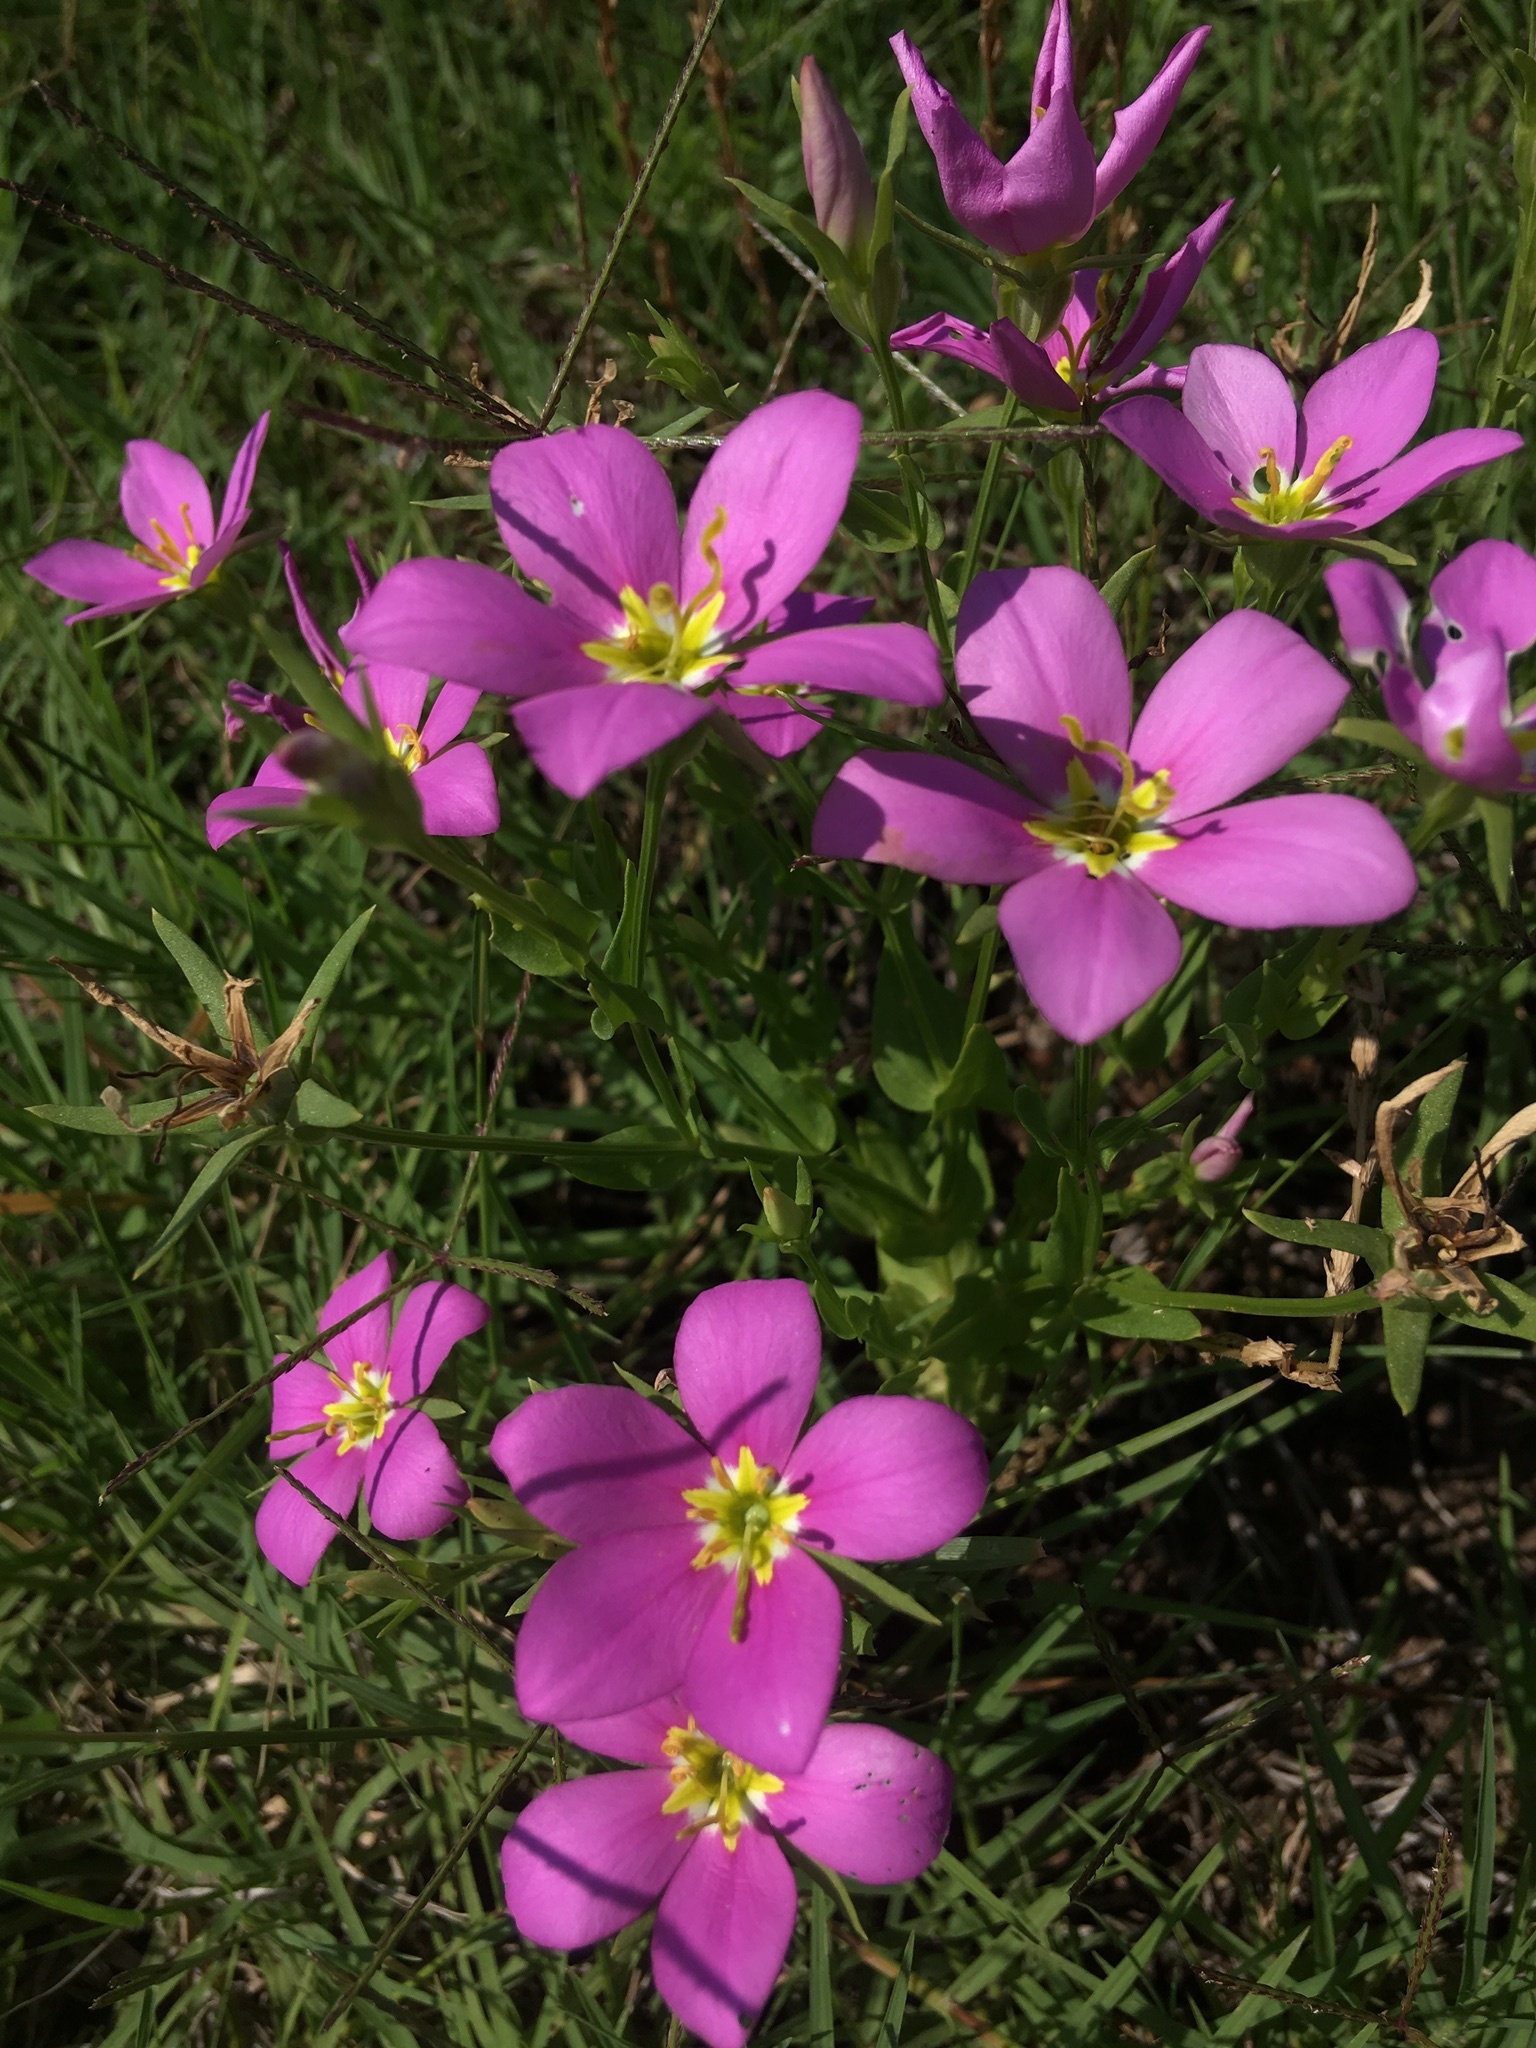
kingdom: Plantae
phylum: Tracheophyta
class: Magnoliopsida
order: Gentianales
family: Gentianaceae
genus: Sabatia
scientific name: Sabatia campestris
